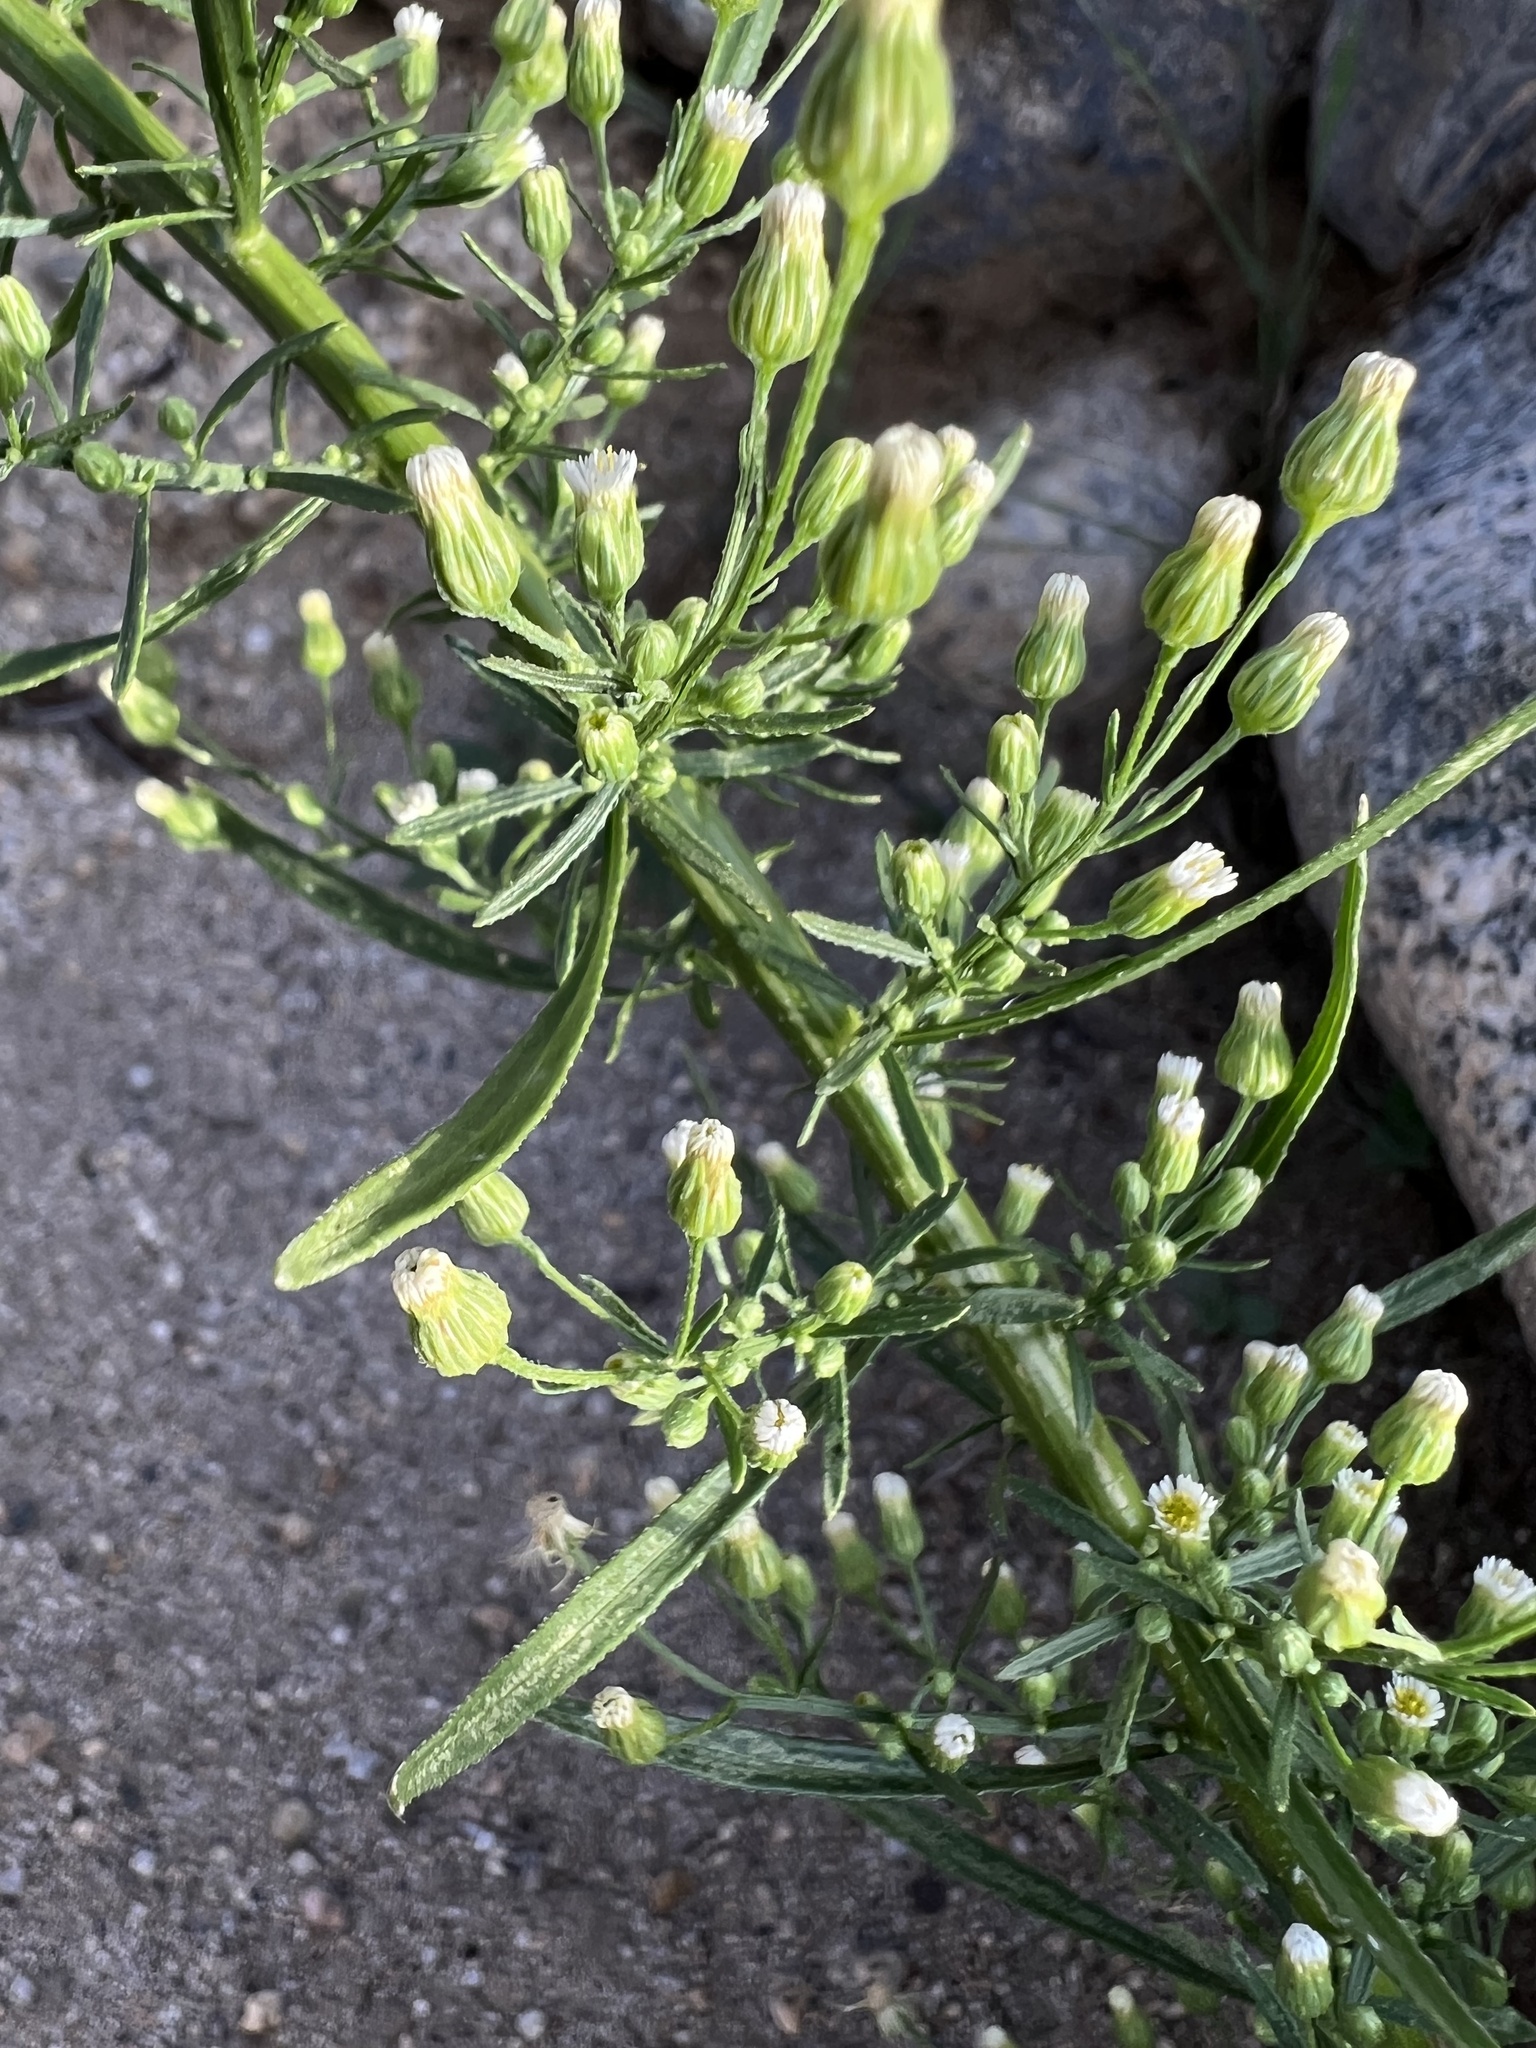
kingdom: Plantae
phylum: Tracheophyta
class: Magnoliopsida
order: Asterales
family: Asteraceae
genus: Erigeron
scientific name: Erigeron canadensis
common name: Canadian fleabane
